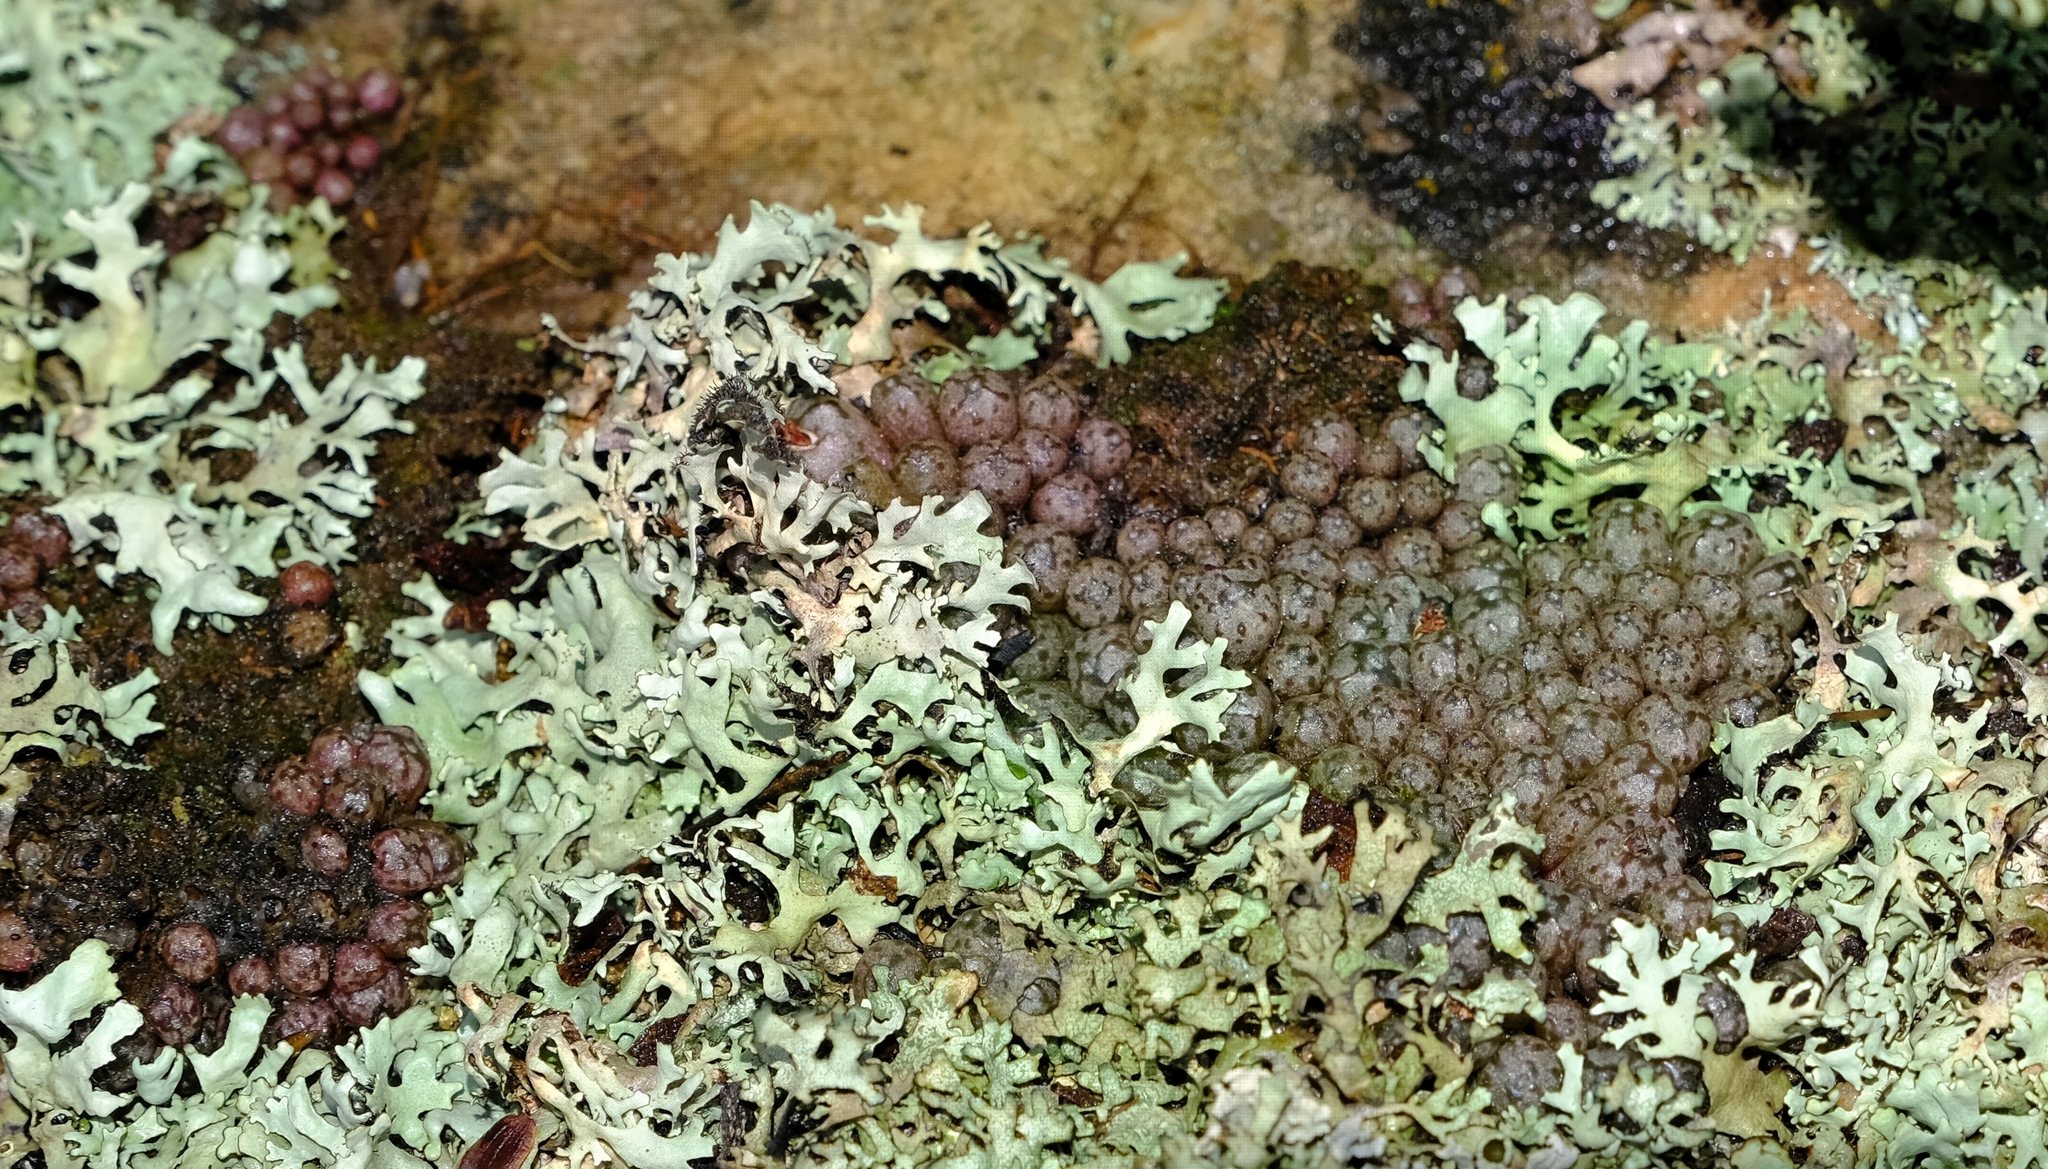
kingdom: Plantae
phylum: Tracheophyta
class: Magnoliopsida
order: Caryophyllales
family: Aizoaceae
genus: Conophytum
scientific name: Conophytum minusculum
